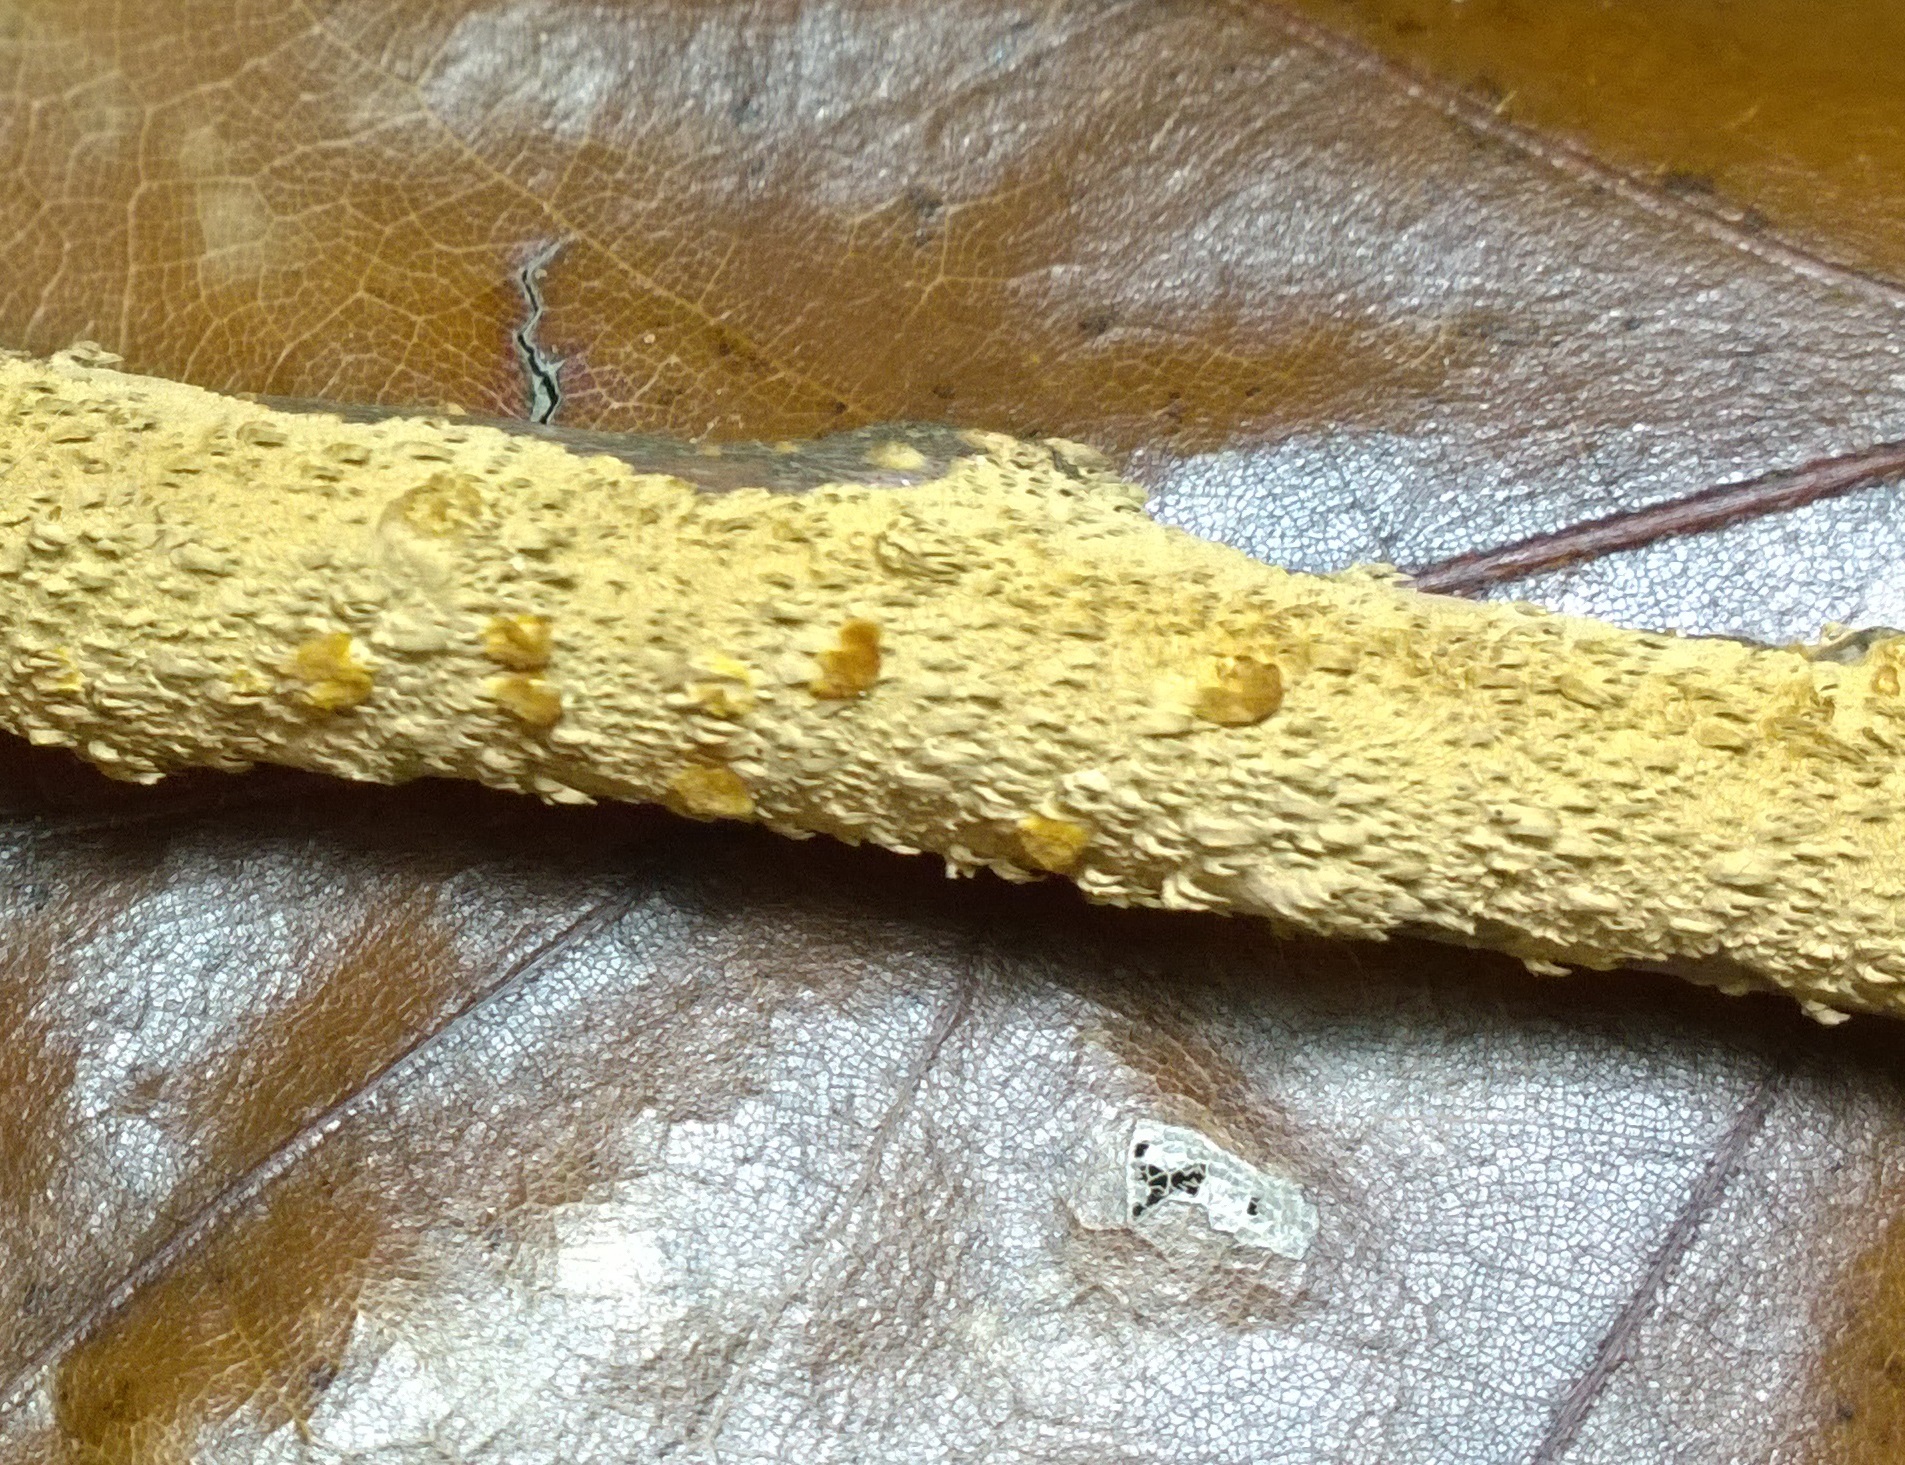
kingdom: Fungi
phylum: Basidiomycota
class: Agaricomycetes
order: Hymenochaetales
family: Hymenochaetaceae
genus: Hydnoporia
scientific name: Hydnoporia olivacea
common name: Brown-toothed crust fungus
